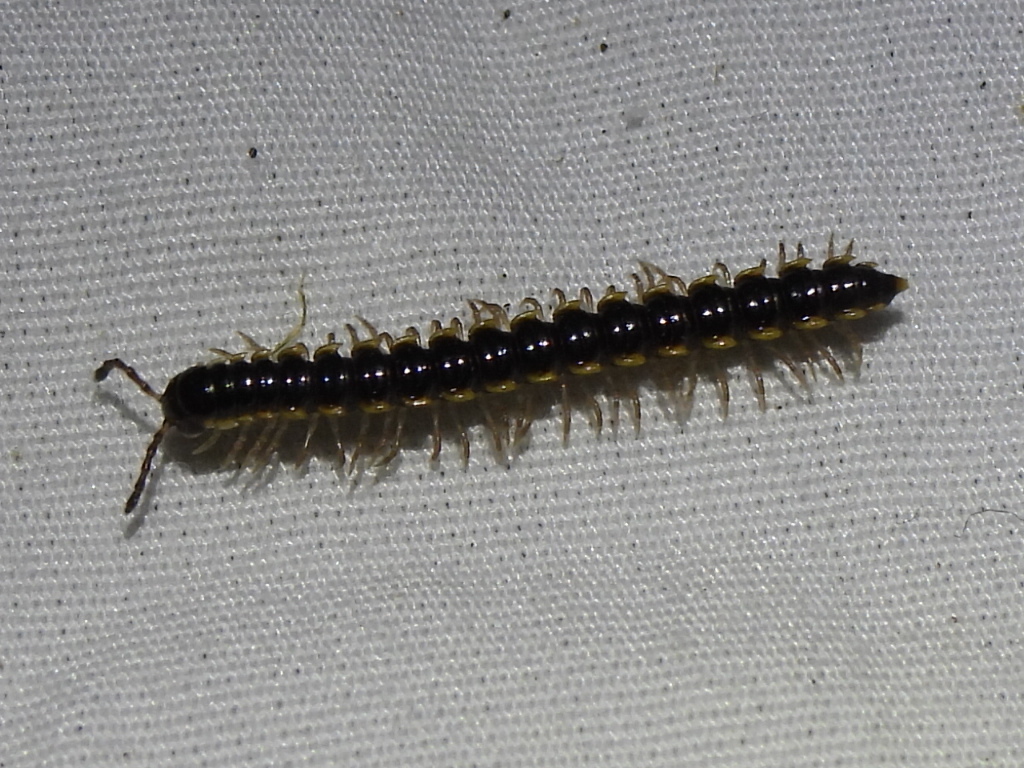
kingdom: Animalia
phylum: Arthropoda
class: Diplopoda
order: Polydesmida
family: Paradoxosomatidae
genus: Orthomorpha
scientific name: Orthomorpha coarctata
